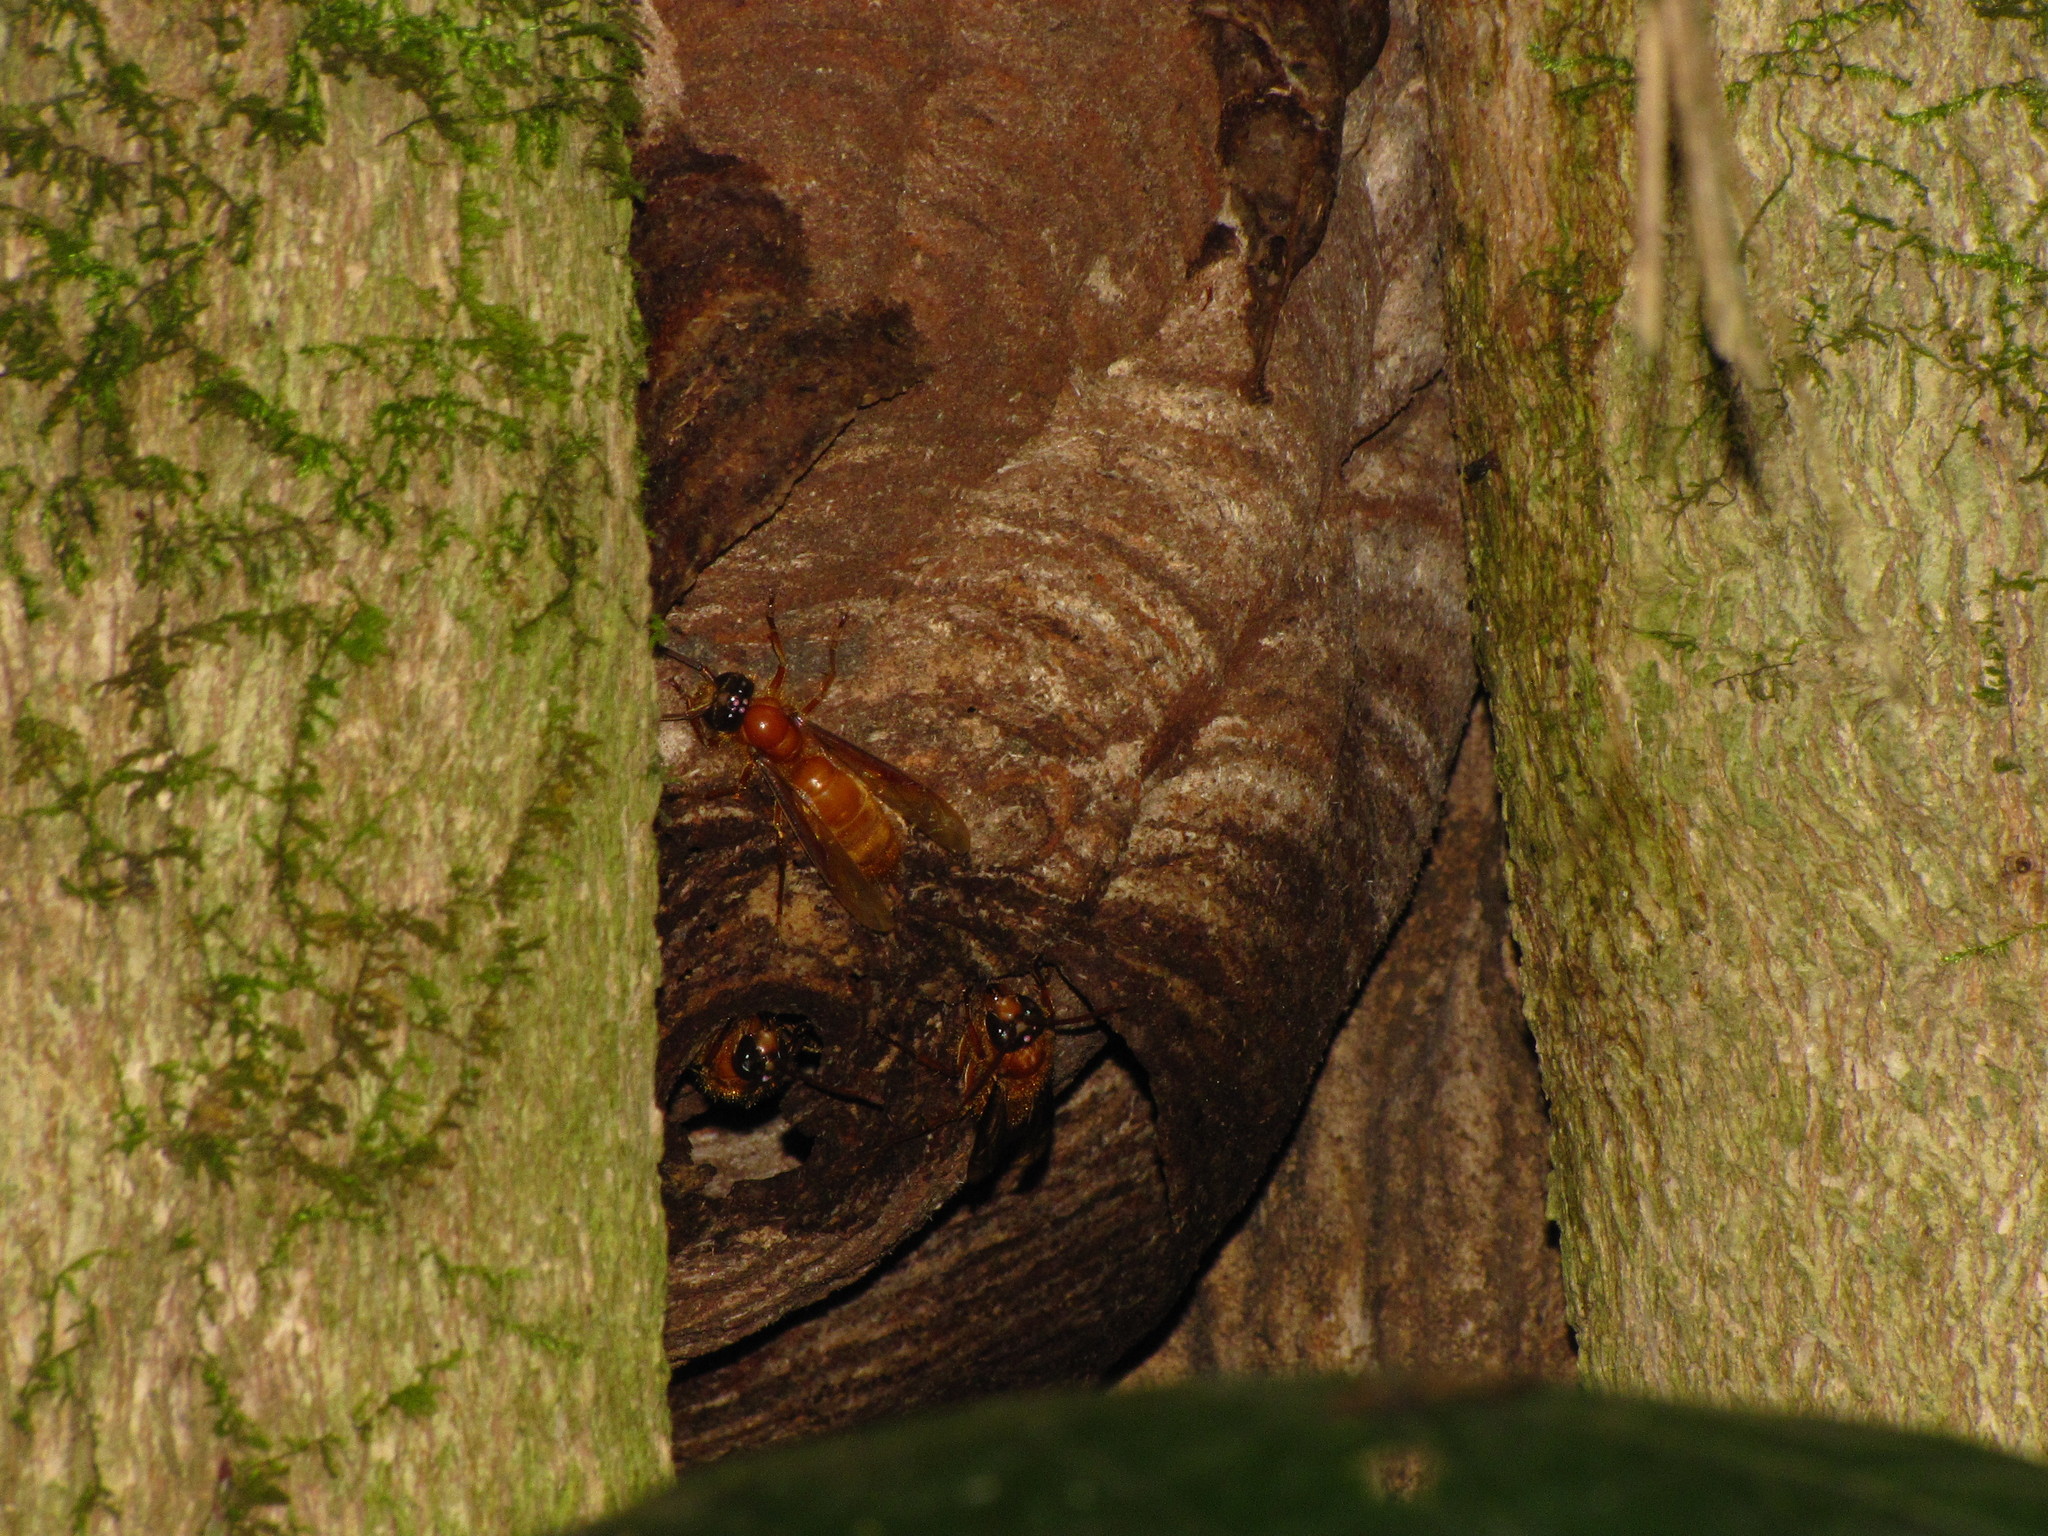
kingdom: Animalia
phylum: Arthropoda
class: Insecta
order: Hymenoptera
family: Vespidae
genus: Provespa
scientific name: Provespa barthelemyi
